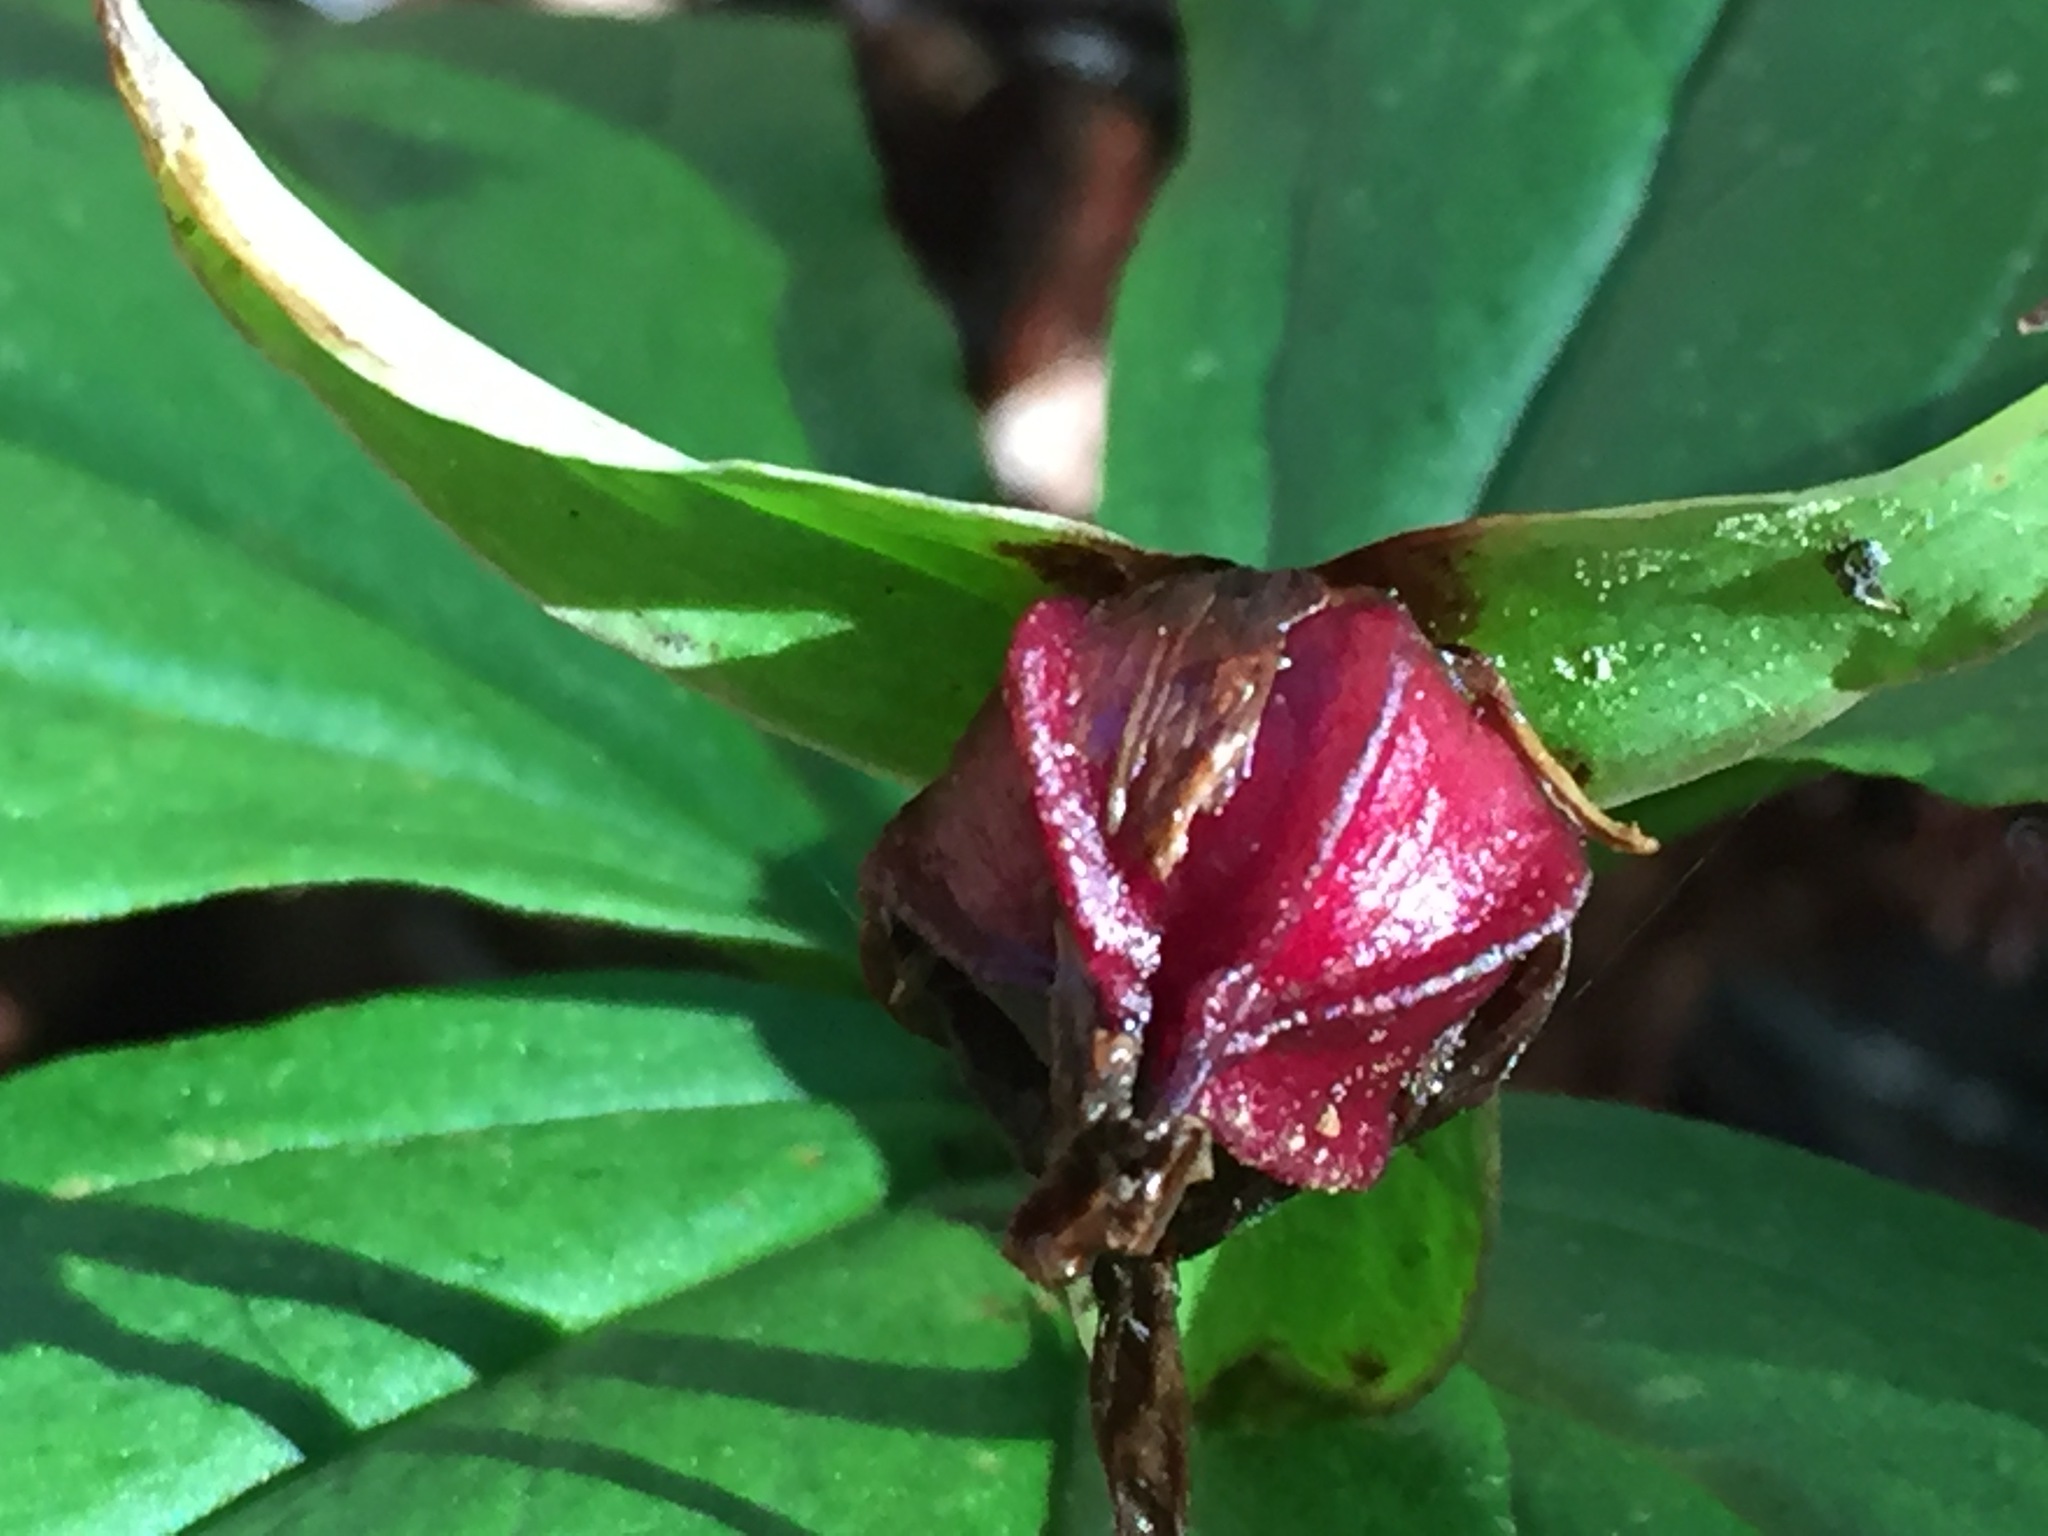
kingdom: Plantae
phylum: Tracheophyta
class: Liliopsida
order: Liliales
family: Melanthiaceae
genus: Trillium
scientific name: Trillium erectum
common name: Purple trillium
